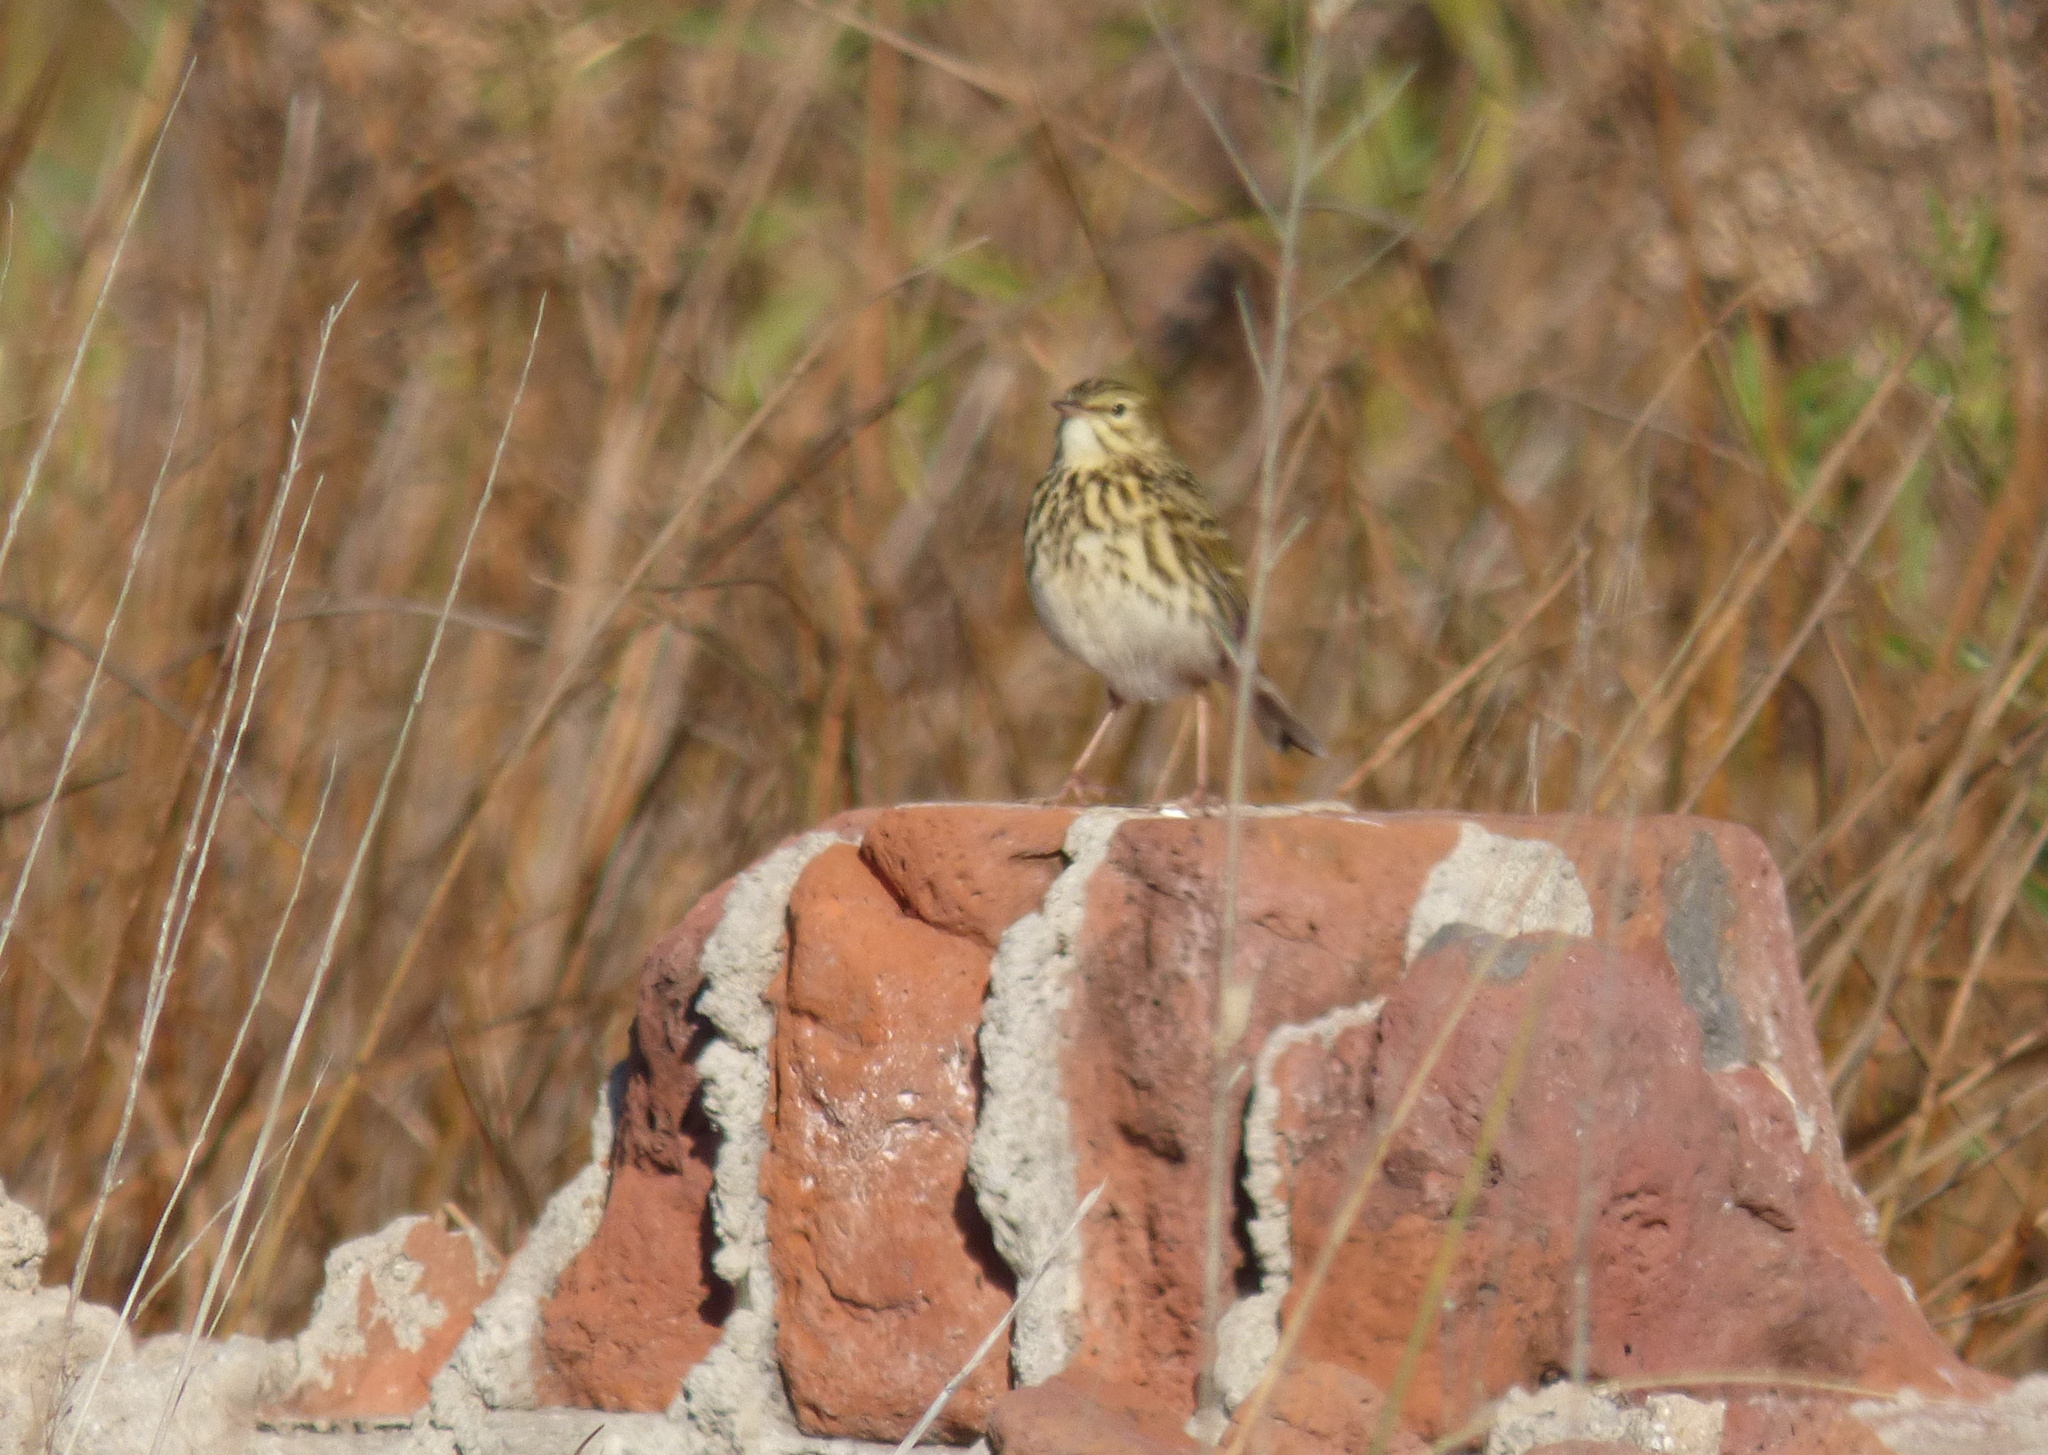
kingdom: Animalia
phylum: Chordata
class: Aves
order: Passeriformes
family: Motacillidae
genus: Anthus
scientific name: Anthus correndera
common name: Correndera pipit
